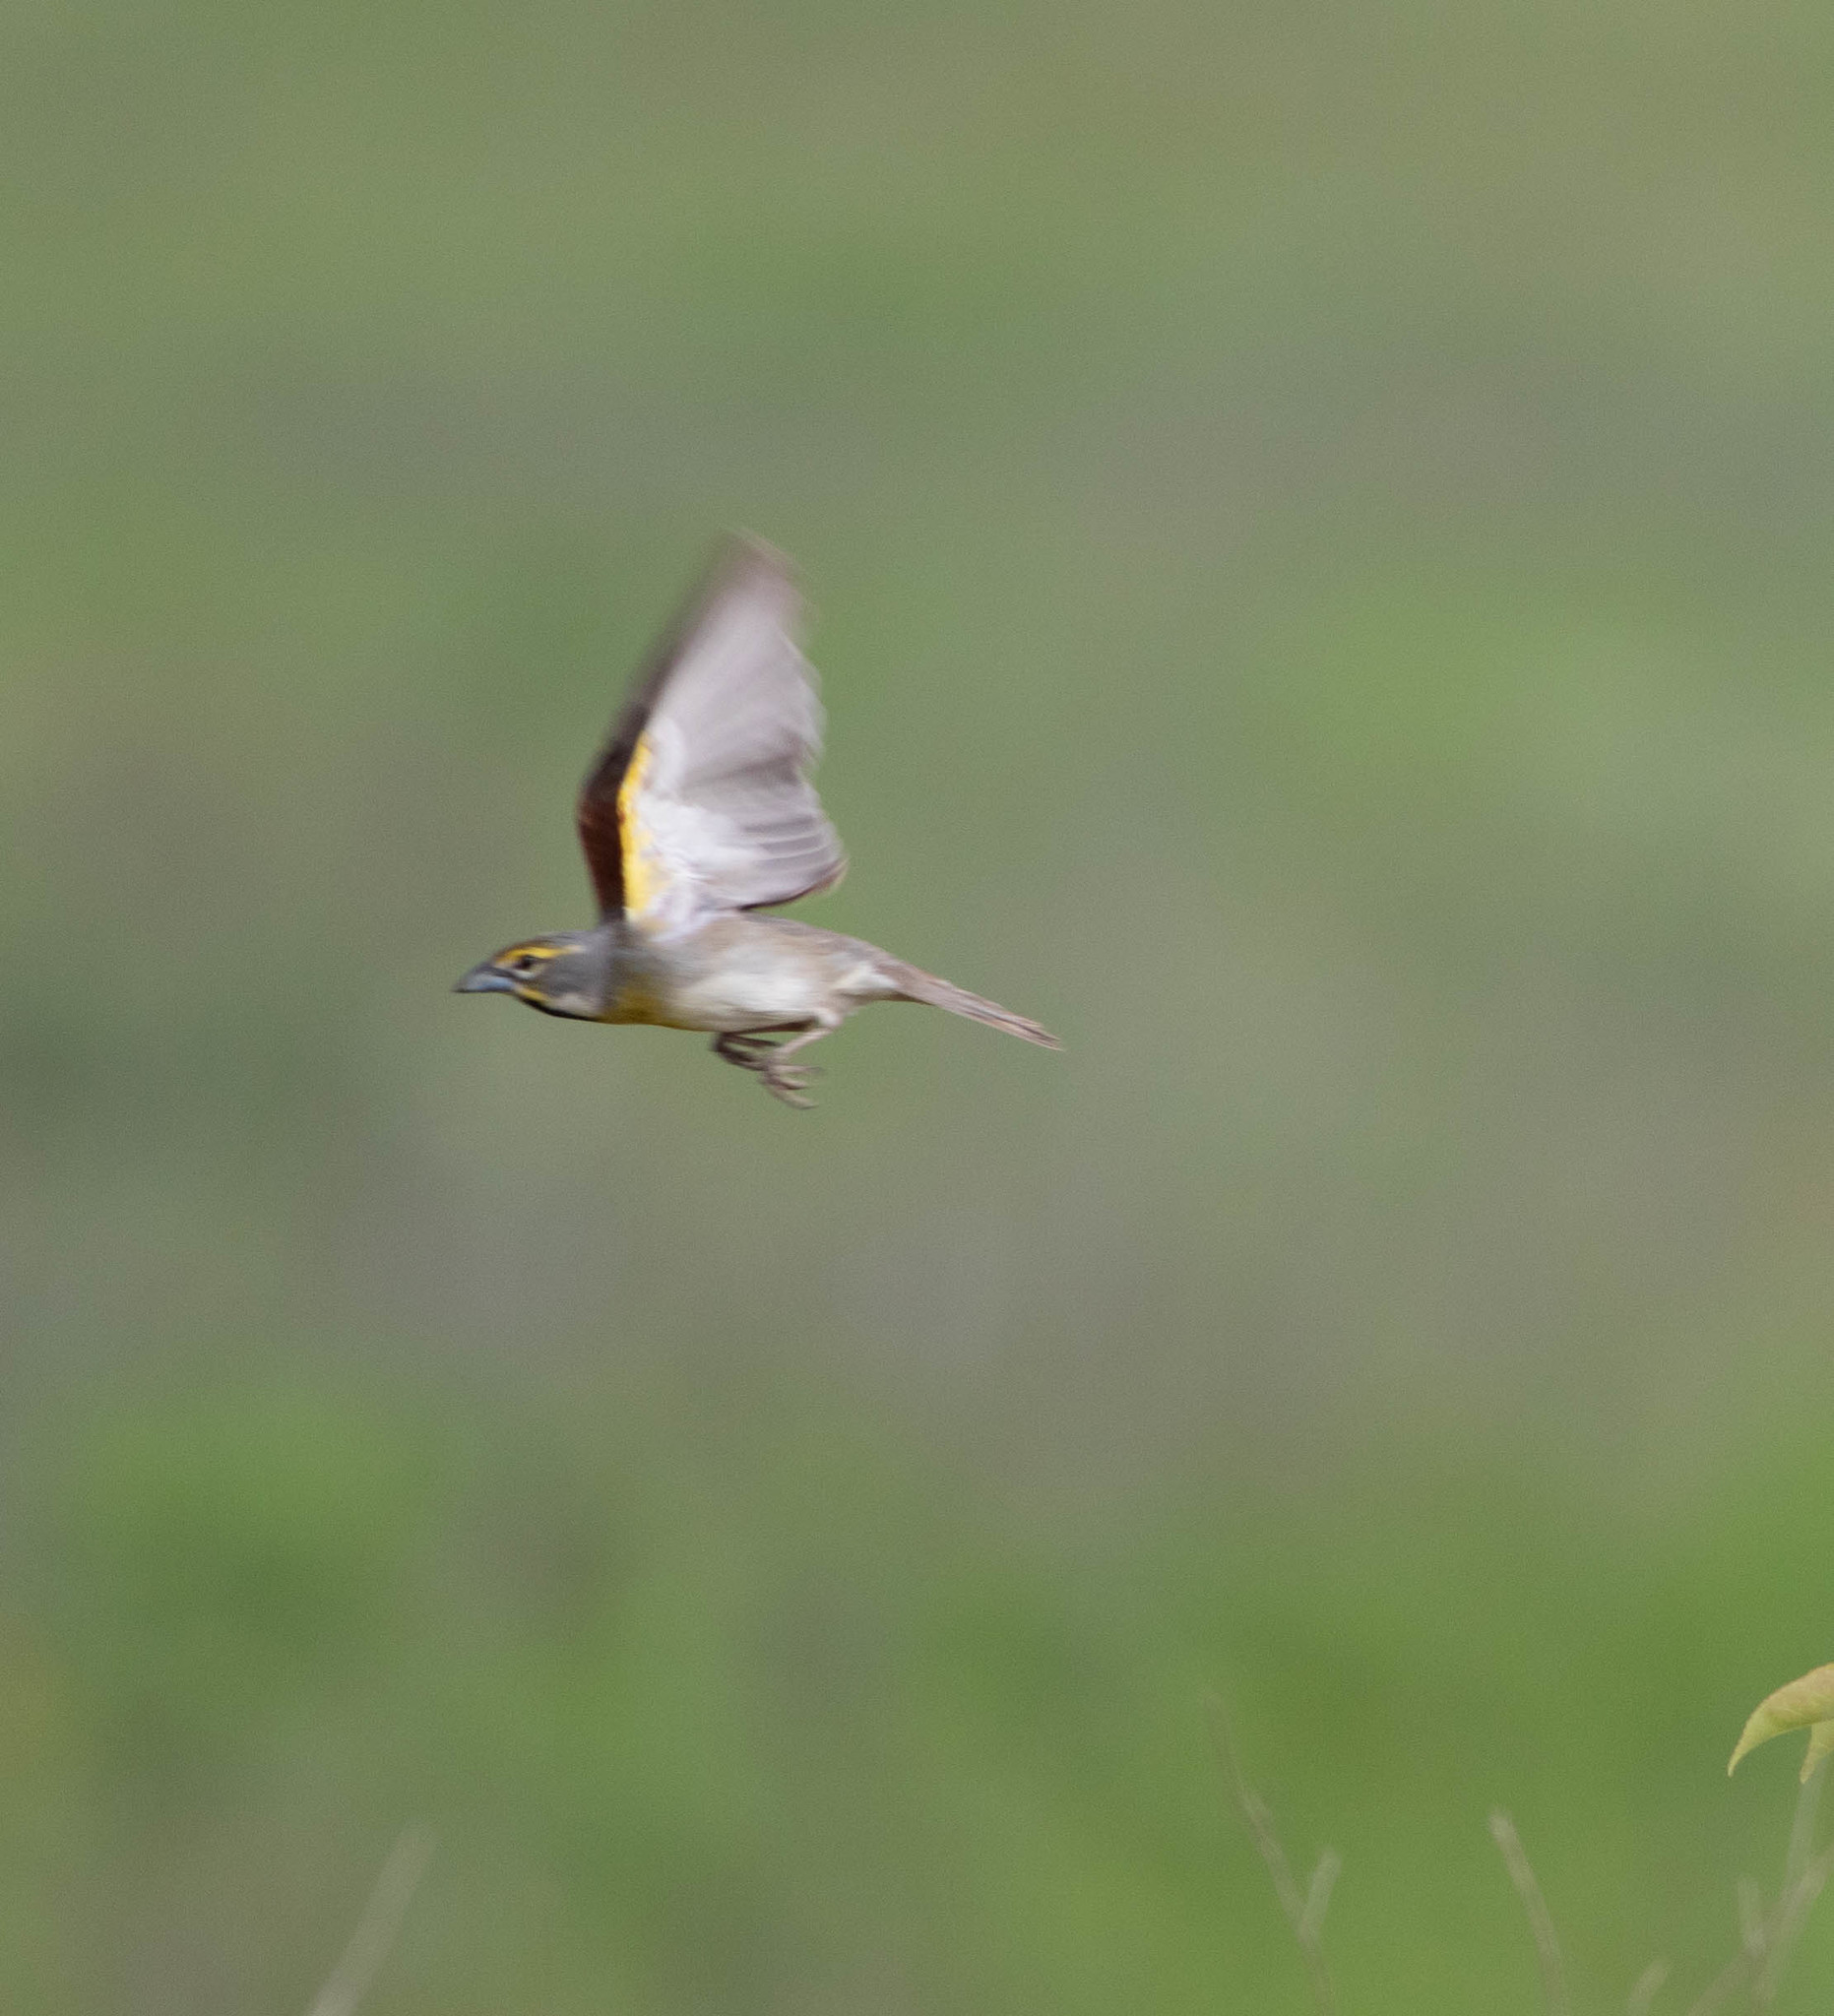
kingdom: Animalia
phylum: Chordata
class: Aves
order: Passeriformes
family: Cardinalidae
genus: Spiza
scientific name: Spiza americana
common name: Dickcissel
